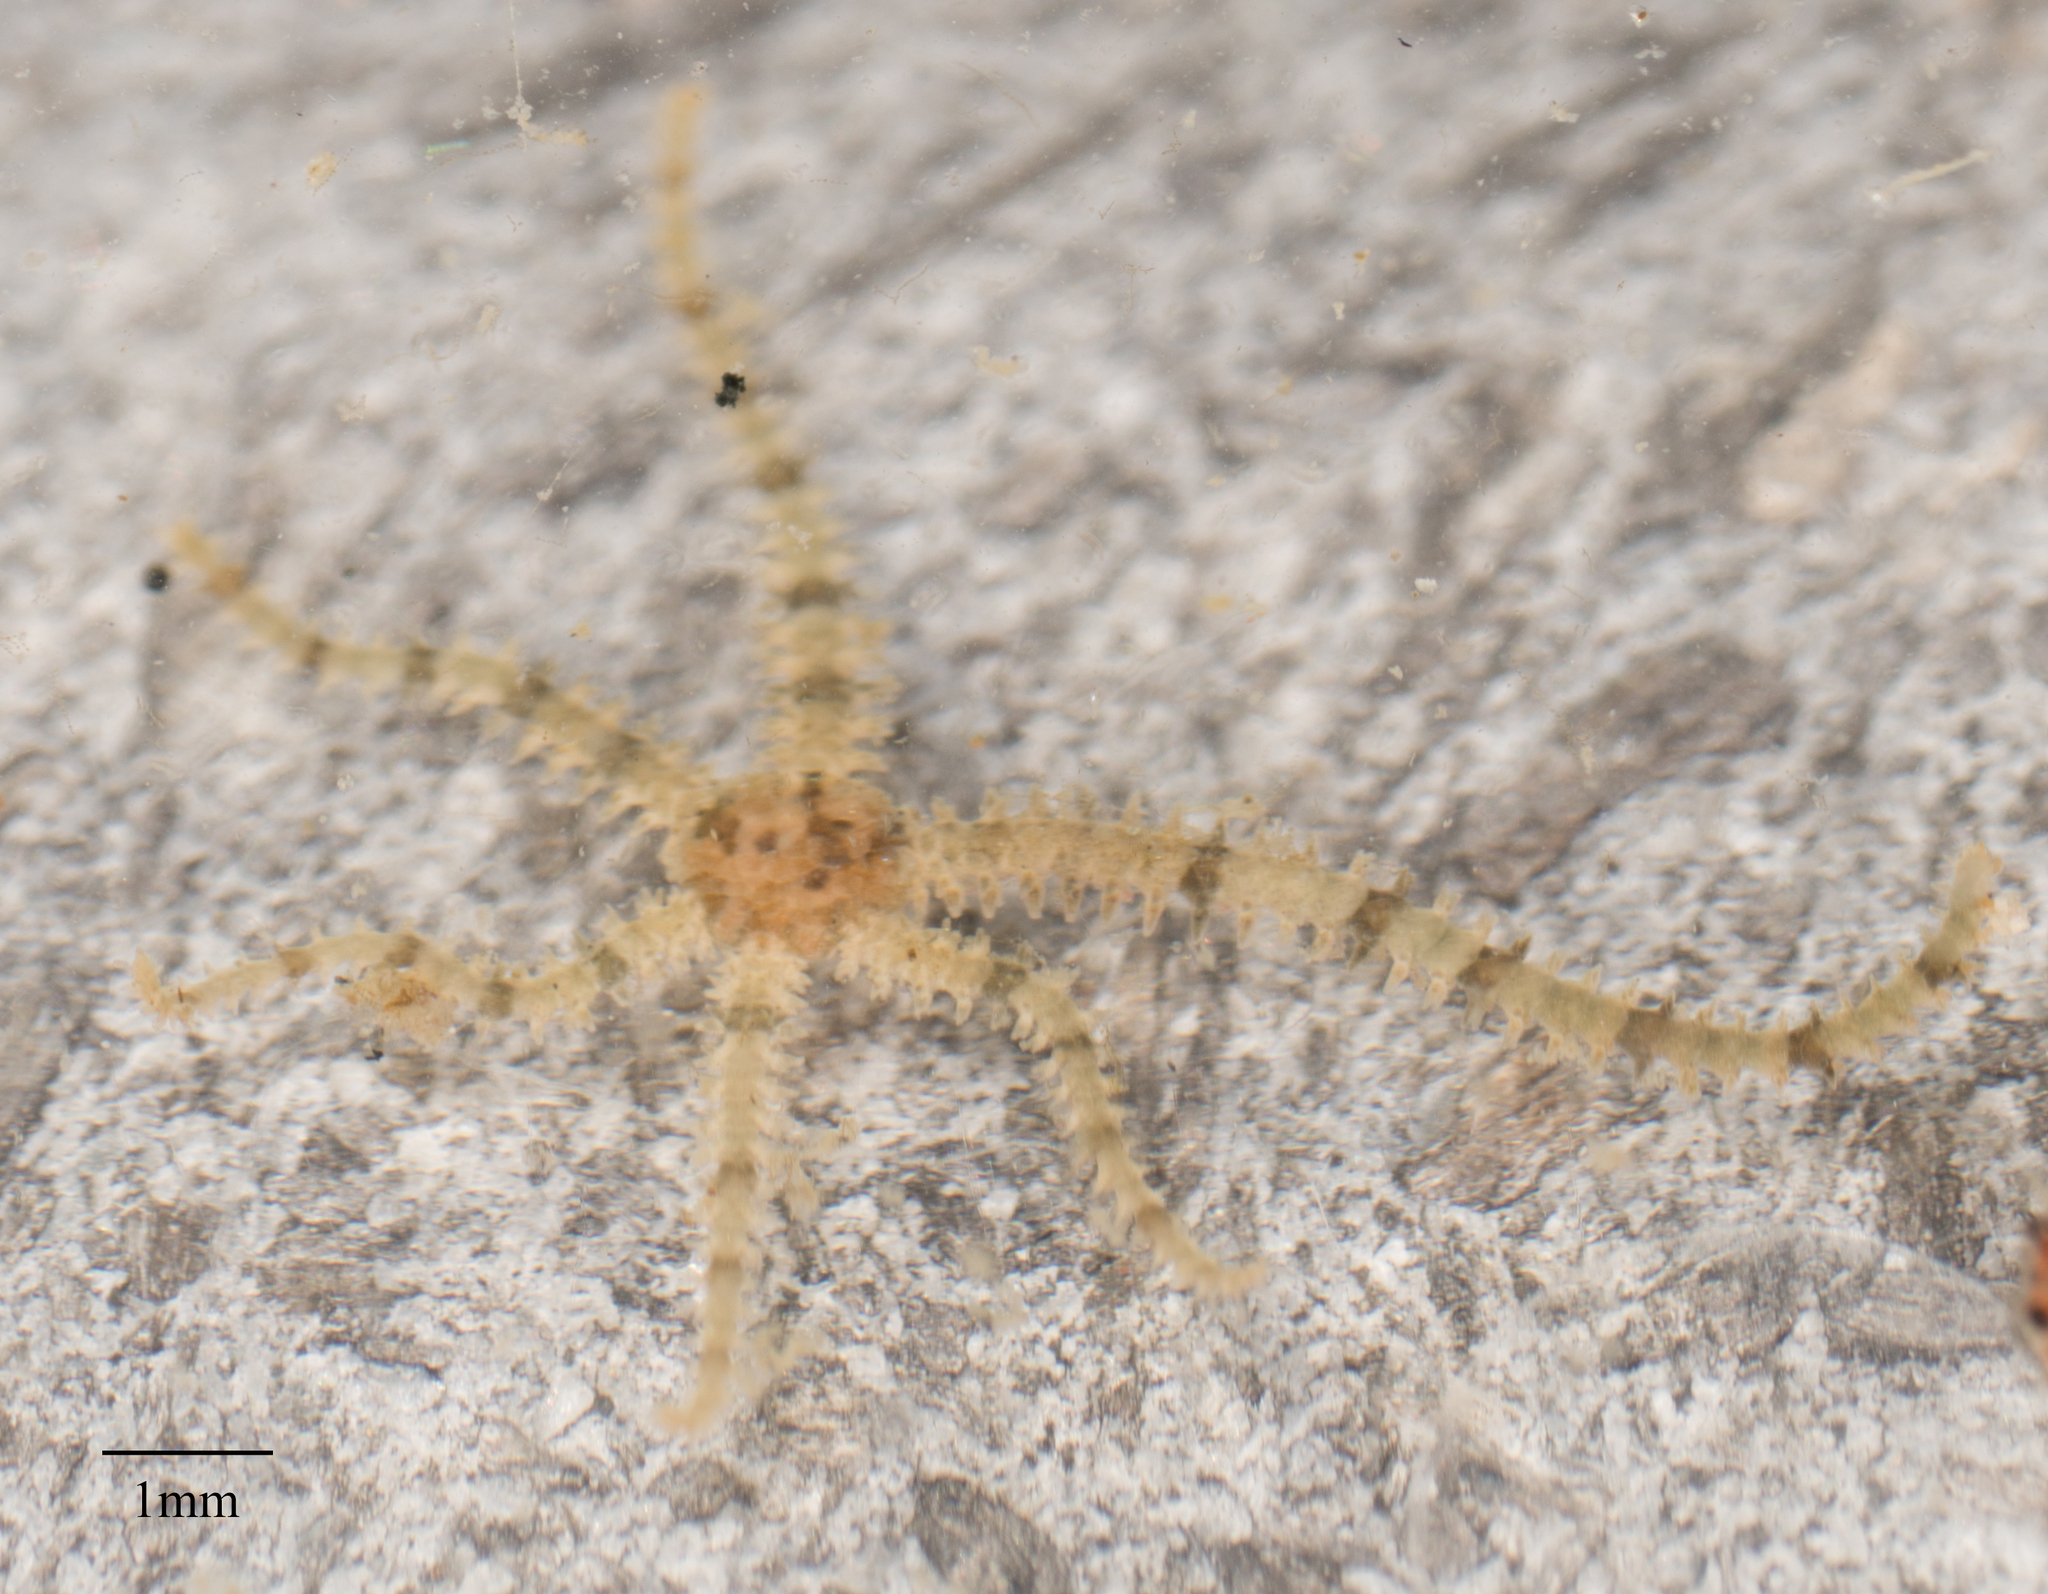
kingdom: Animalia
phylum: Echinodermata
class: Ophiuroidea
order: Amphilepidida
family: Ophiactidae
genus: Ophiactis
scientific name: Ophiactis savignyi
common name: Savigny's brittle star
